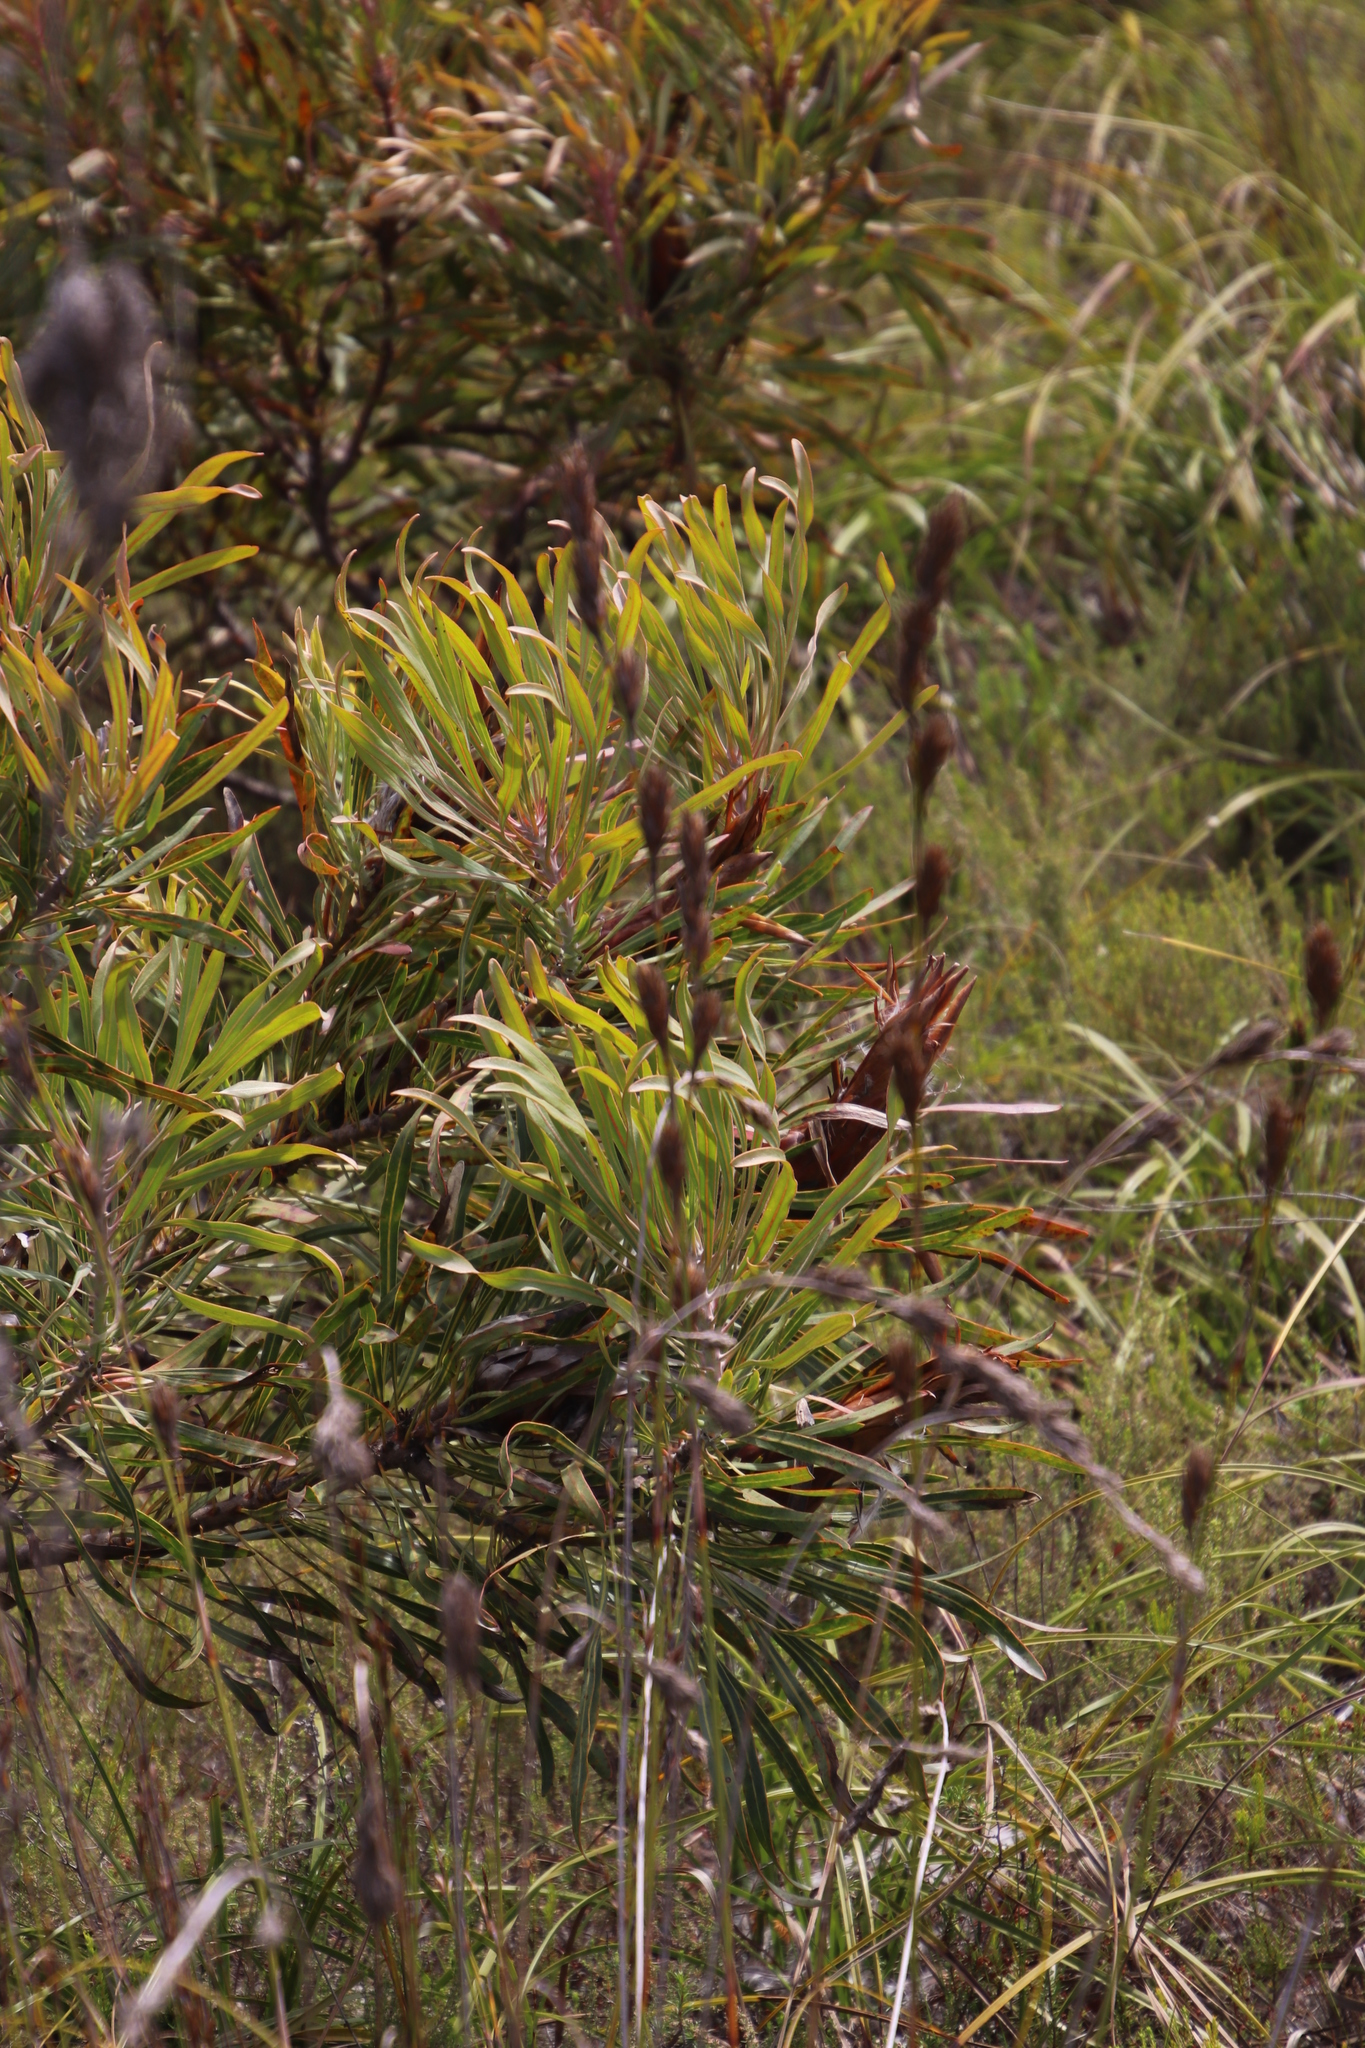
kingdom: Plantae
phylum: Tracheophyta
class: Liliopsida
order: Poales
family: Cyperaceae
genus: Tetraria
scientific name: Tetraria bromoides
